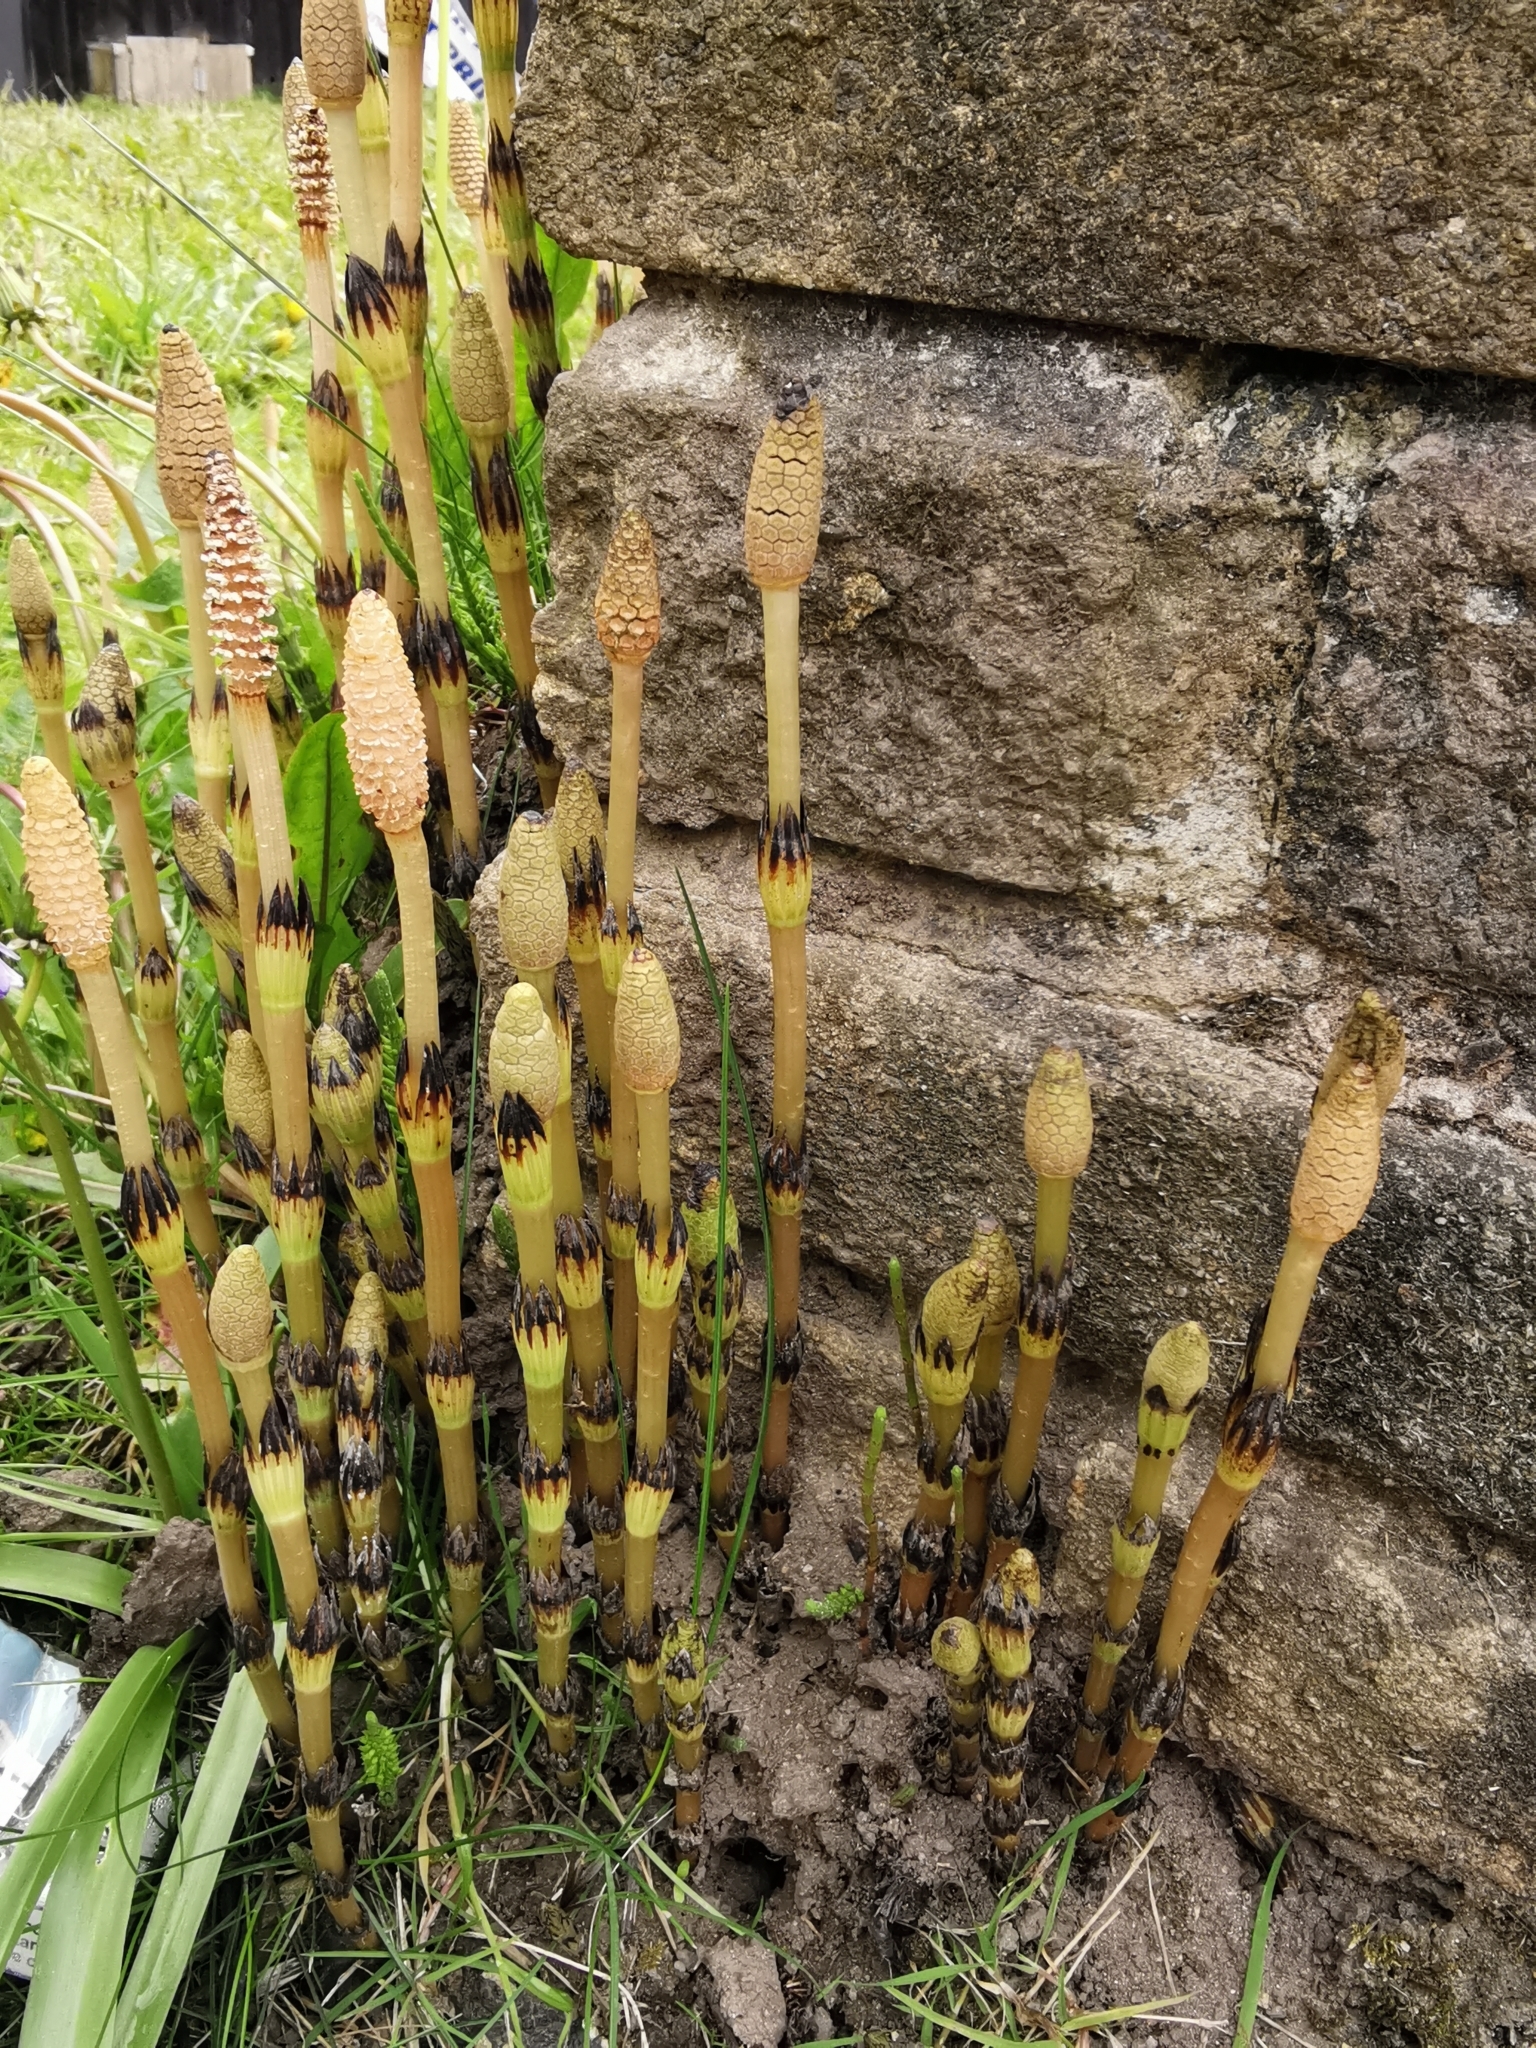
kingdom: Plantae
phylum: Tracheophyta
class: Polypodiopsida
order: Equisetales
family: Equisetaceae
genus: Equisetum
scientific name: Equisetum arvense
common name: Field horsetail
